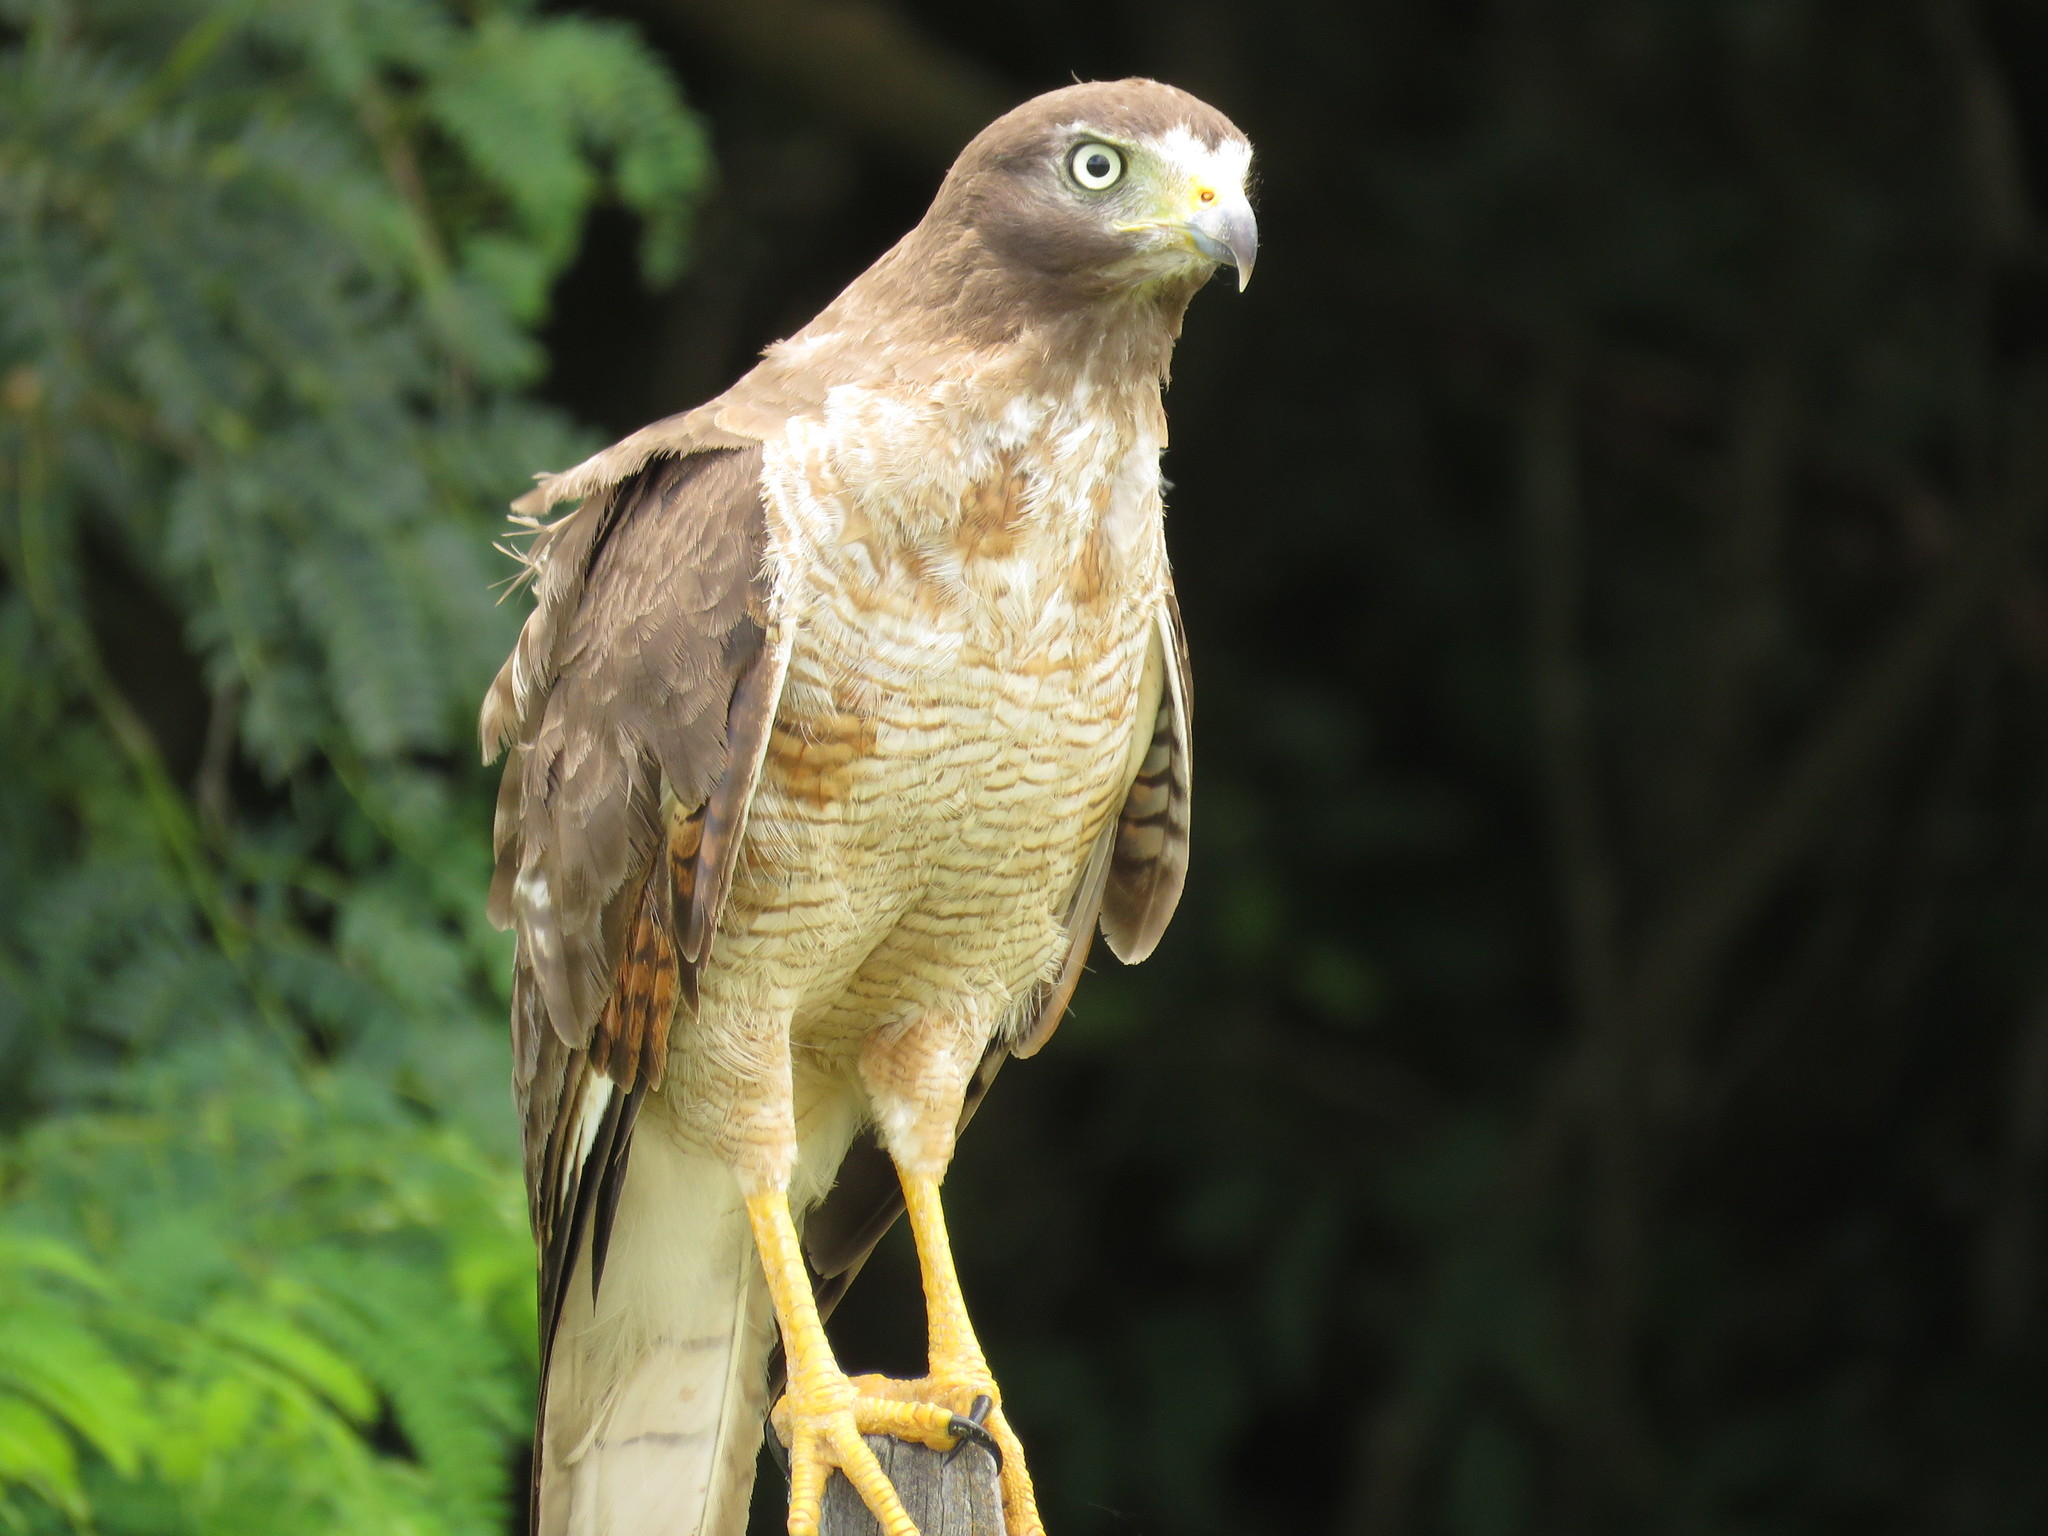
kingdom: Animalia
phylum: Chordata
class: Aves
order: Accipitriformes
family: Accipitridae
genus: Rupornis
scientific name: Rupornis magnirostris
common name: Roadside hawk
